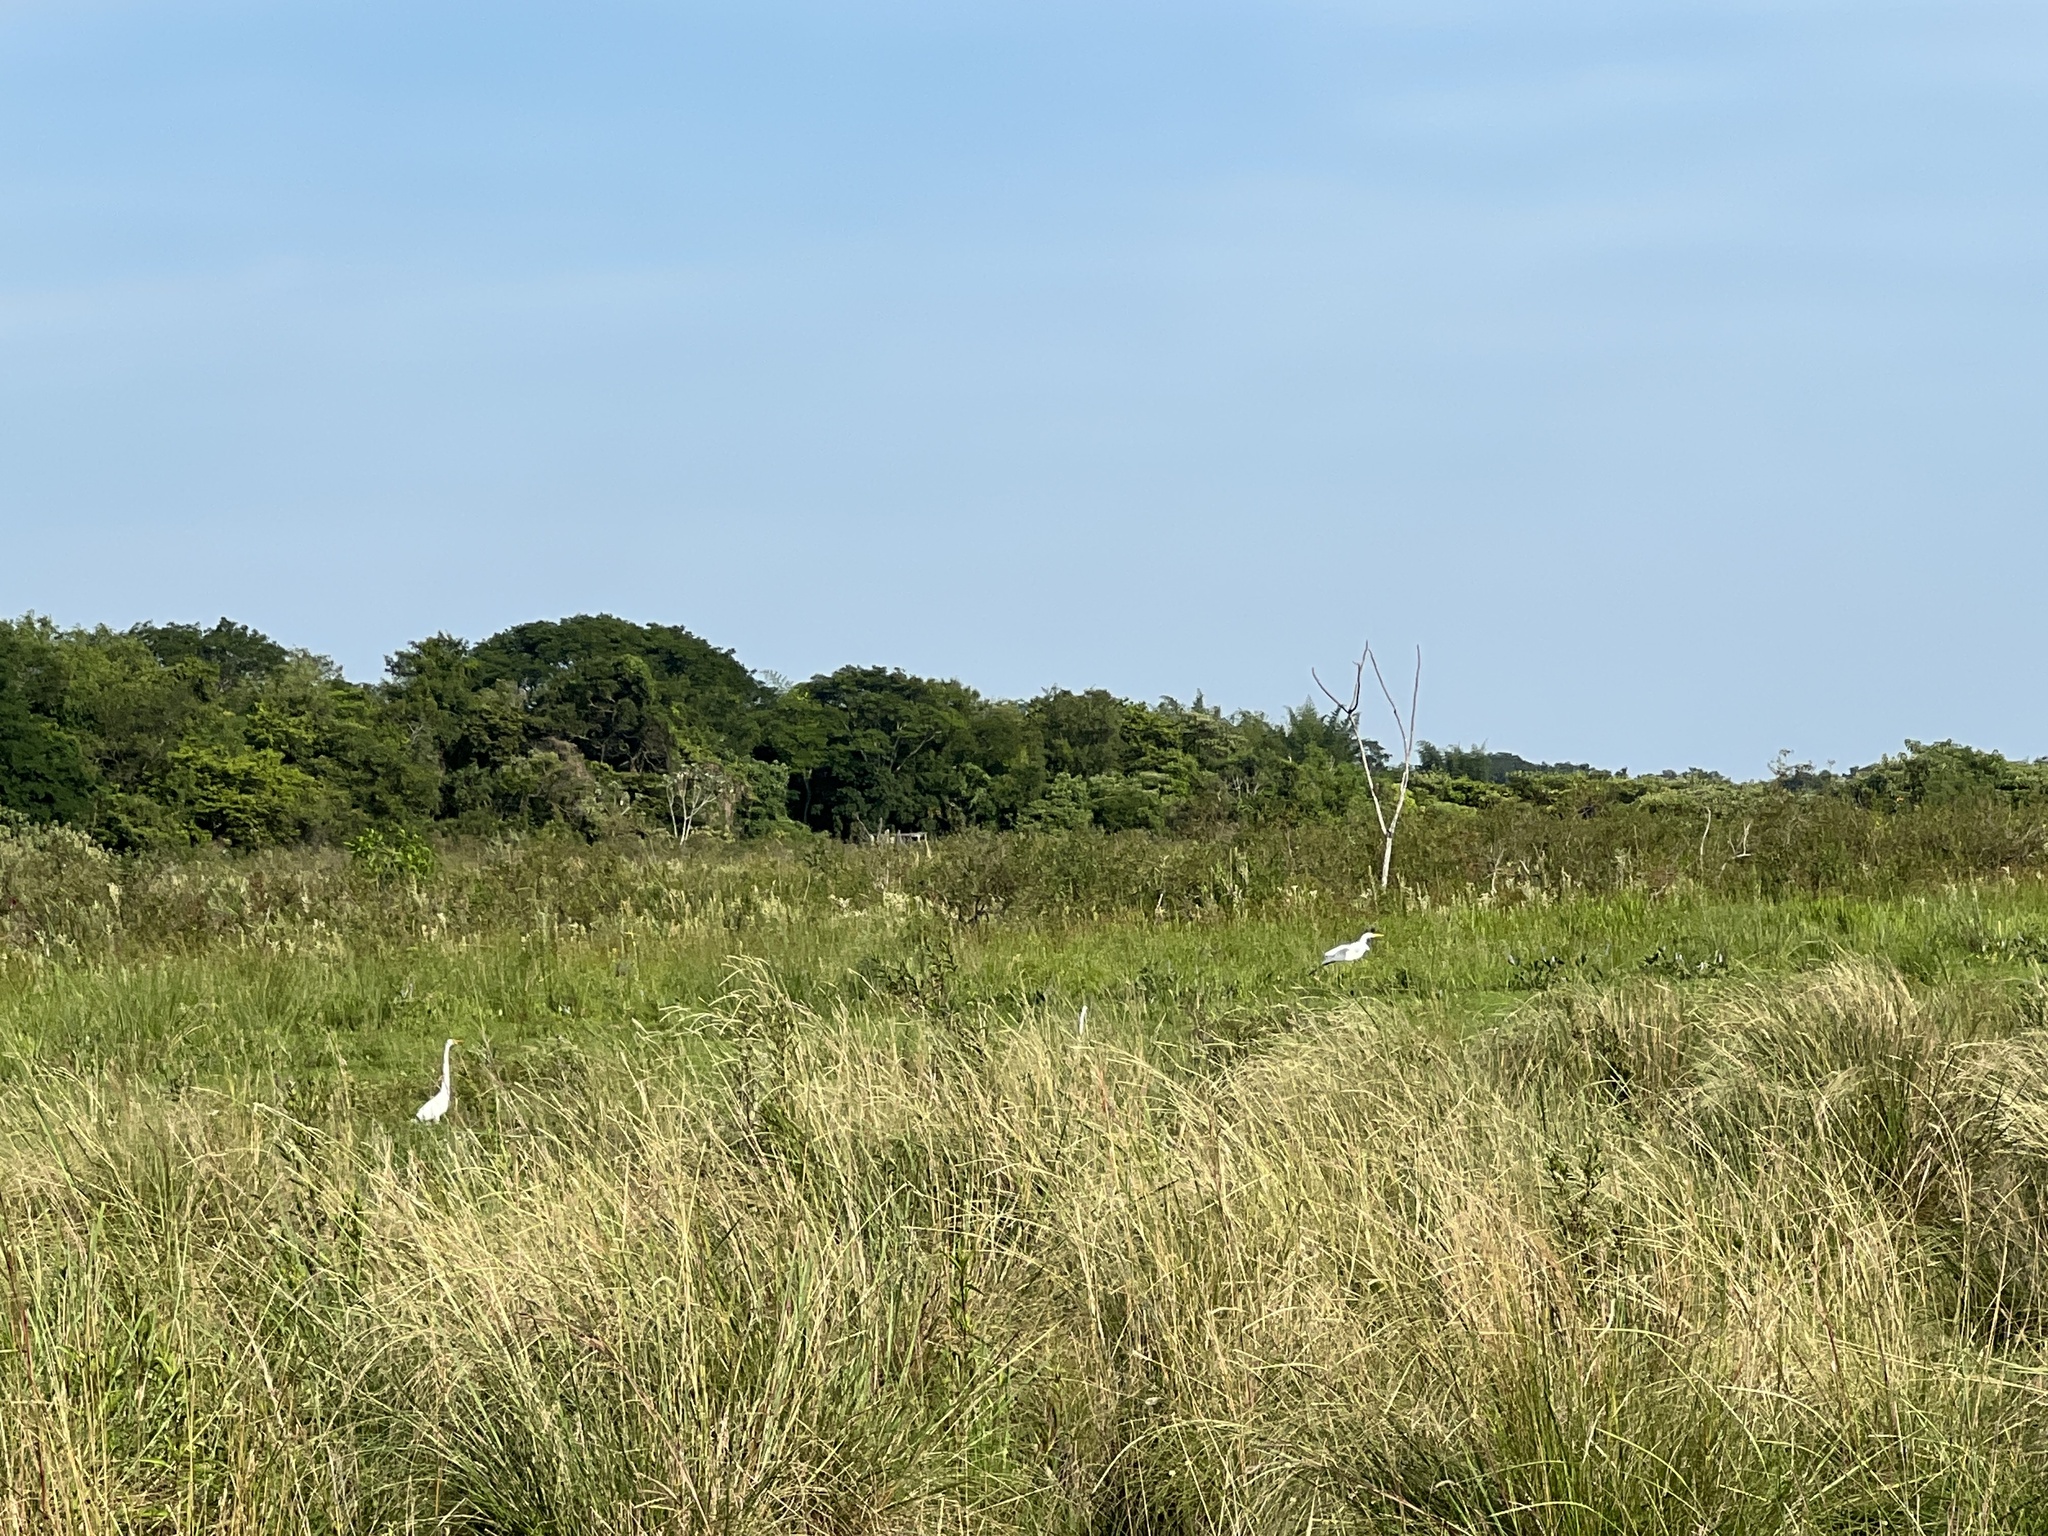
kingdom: Animalia
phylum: Chordata
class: Aves
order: Pelecaniformes
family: Ardeidae
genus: Ardea
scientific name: Ardea alba
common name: Great egret
